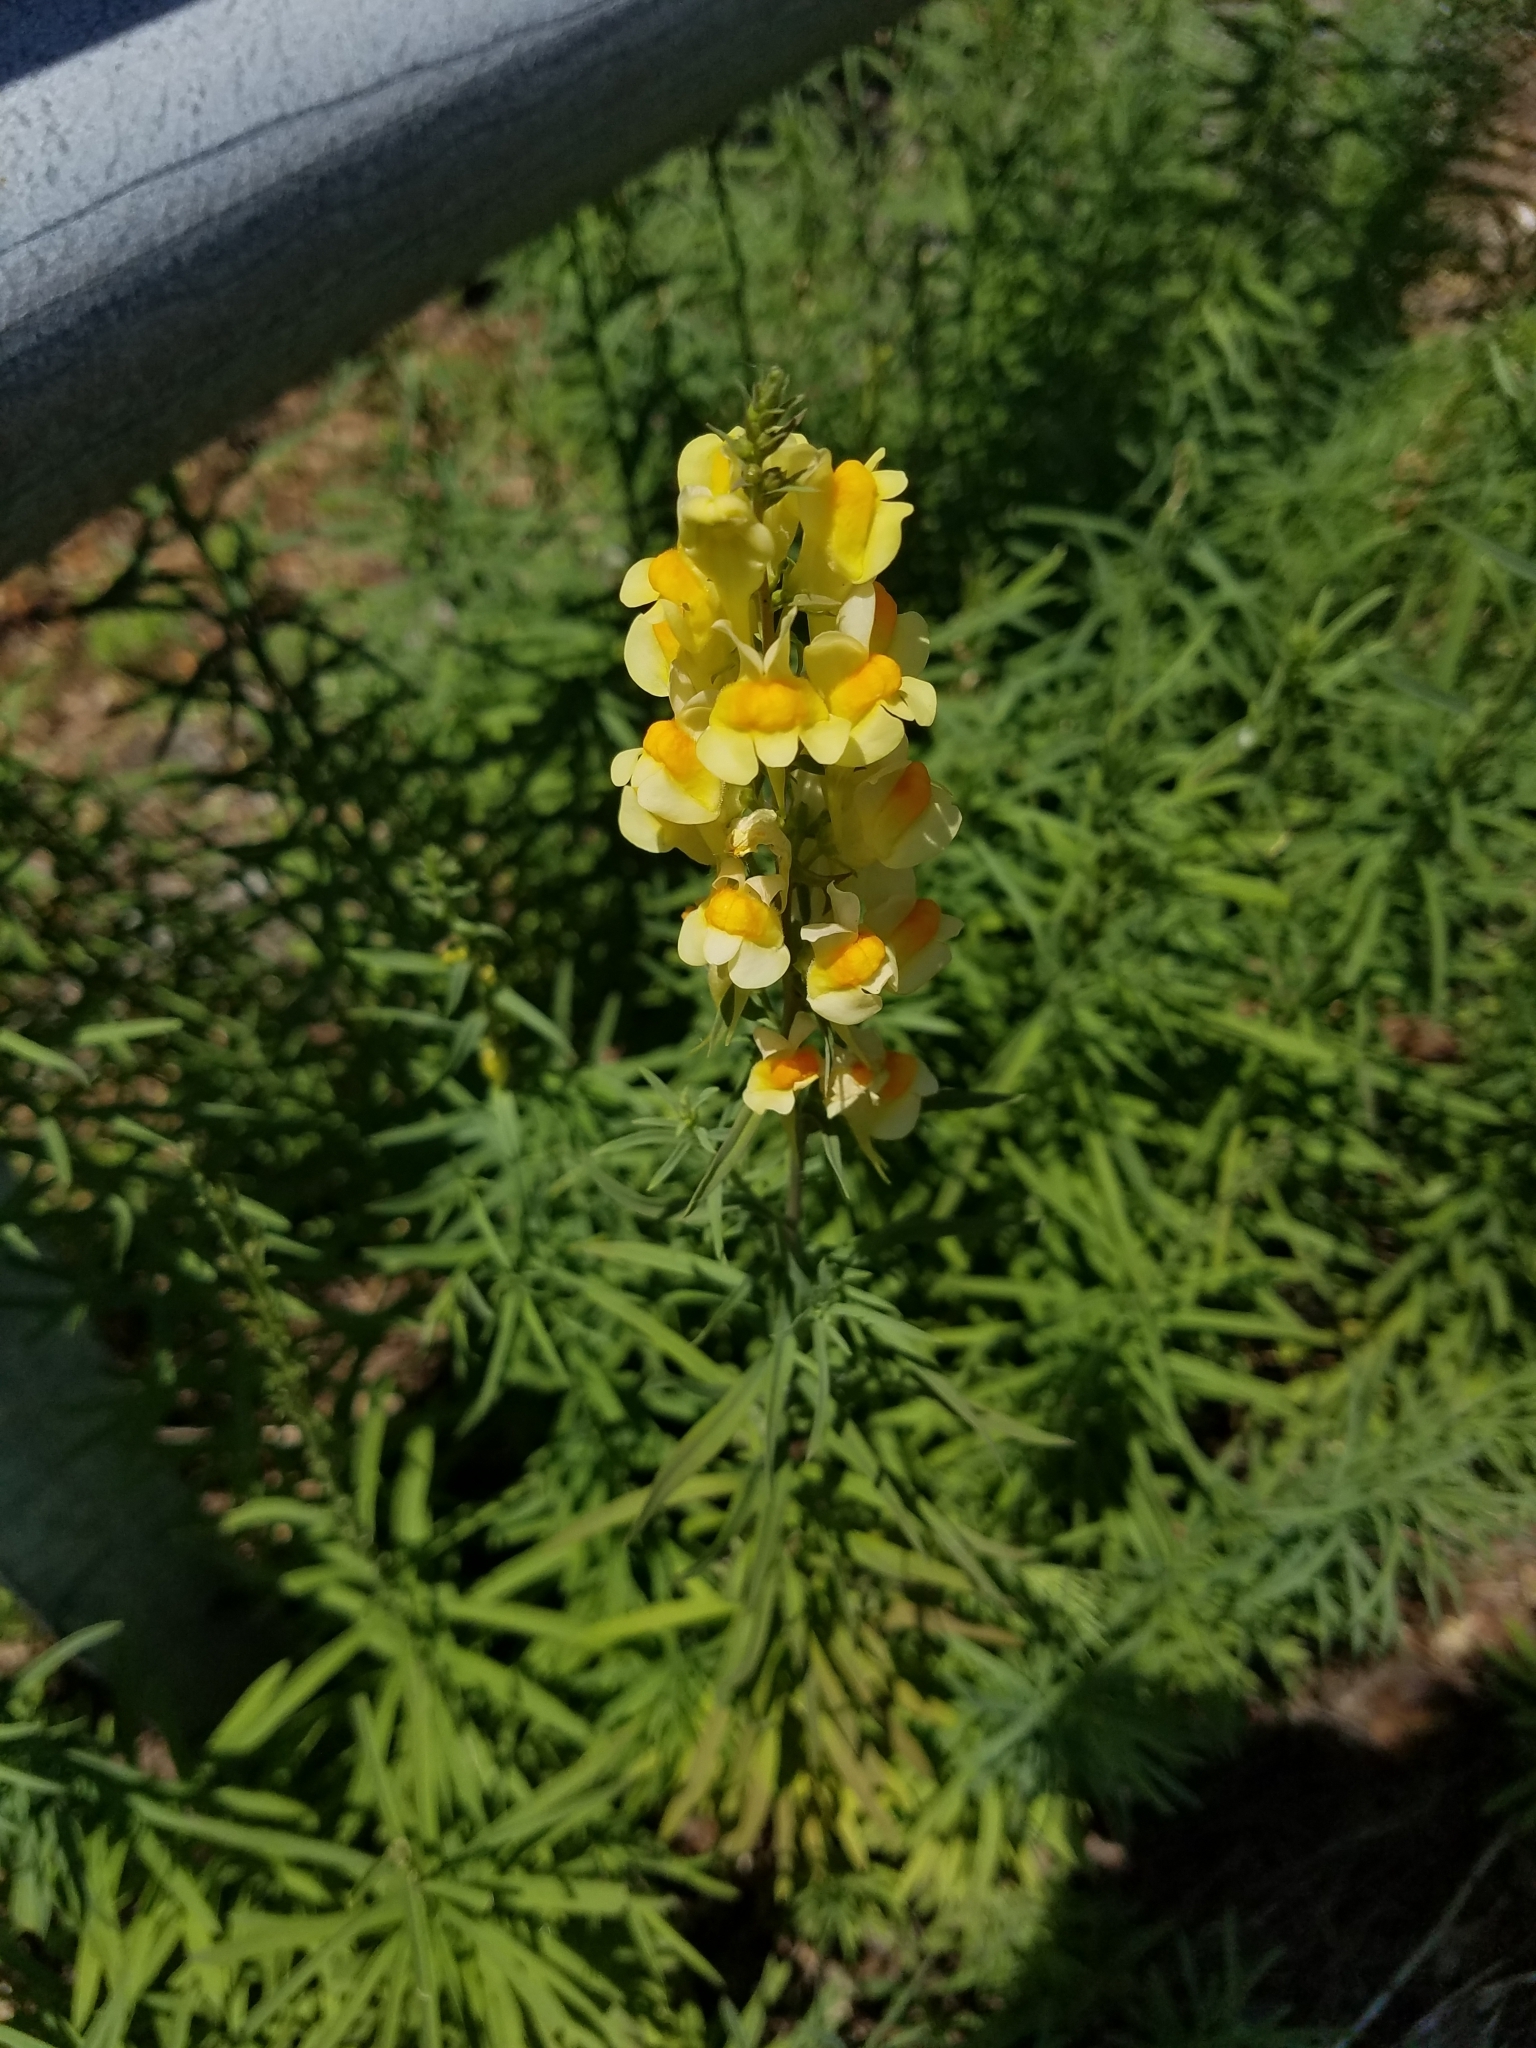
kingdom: Plantae
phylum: Tracheophyta
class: Magnoliopsida
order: Lamiales
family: Plantaginaceae
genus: Linaria
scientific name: Linaria vulgaris
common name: Butter and eggs
